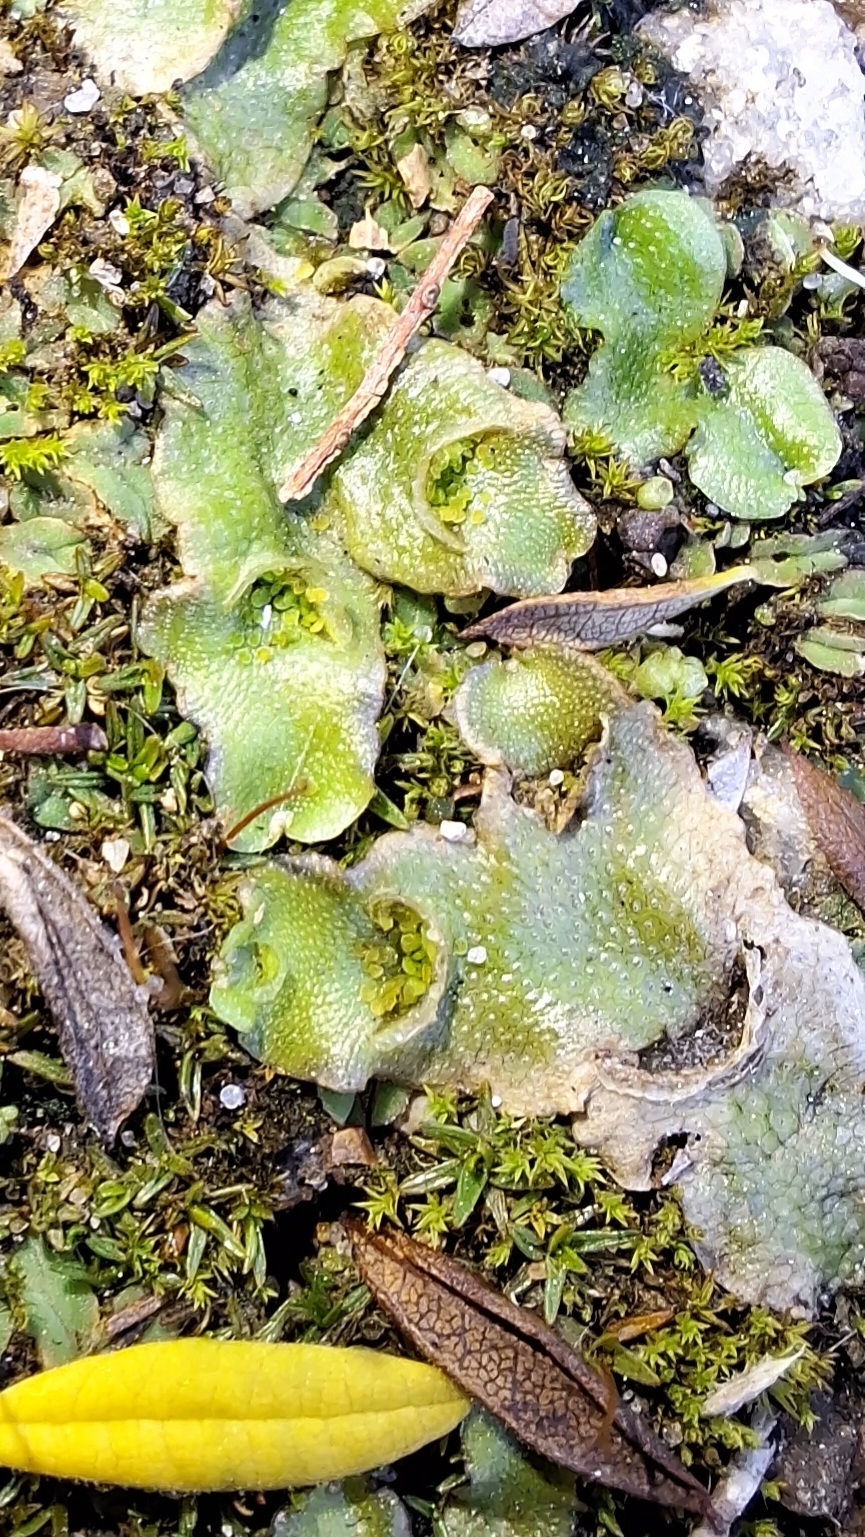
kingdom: Plantae
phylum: Marchantiophyta
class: Marchantiopsida
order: Lunulariales
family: Lunulariaceae
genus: Lunularia
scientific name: Lunularia cruciata
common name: Crescent-cup liverwort
